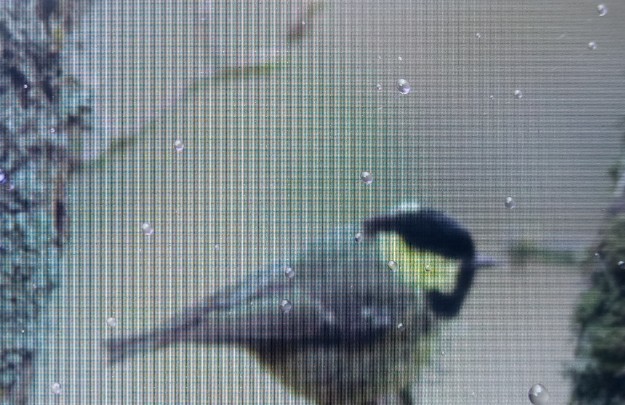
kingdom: Animalia
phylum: Chordata
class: Aves
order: Passeriformes
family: Paridae
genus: Periparus
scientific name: Periparus ater
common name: Coal tit
